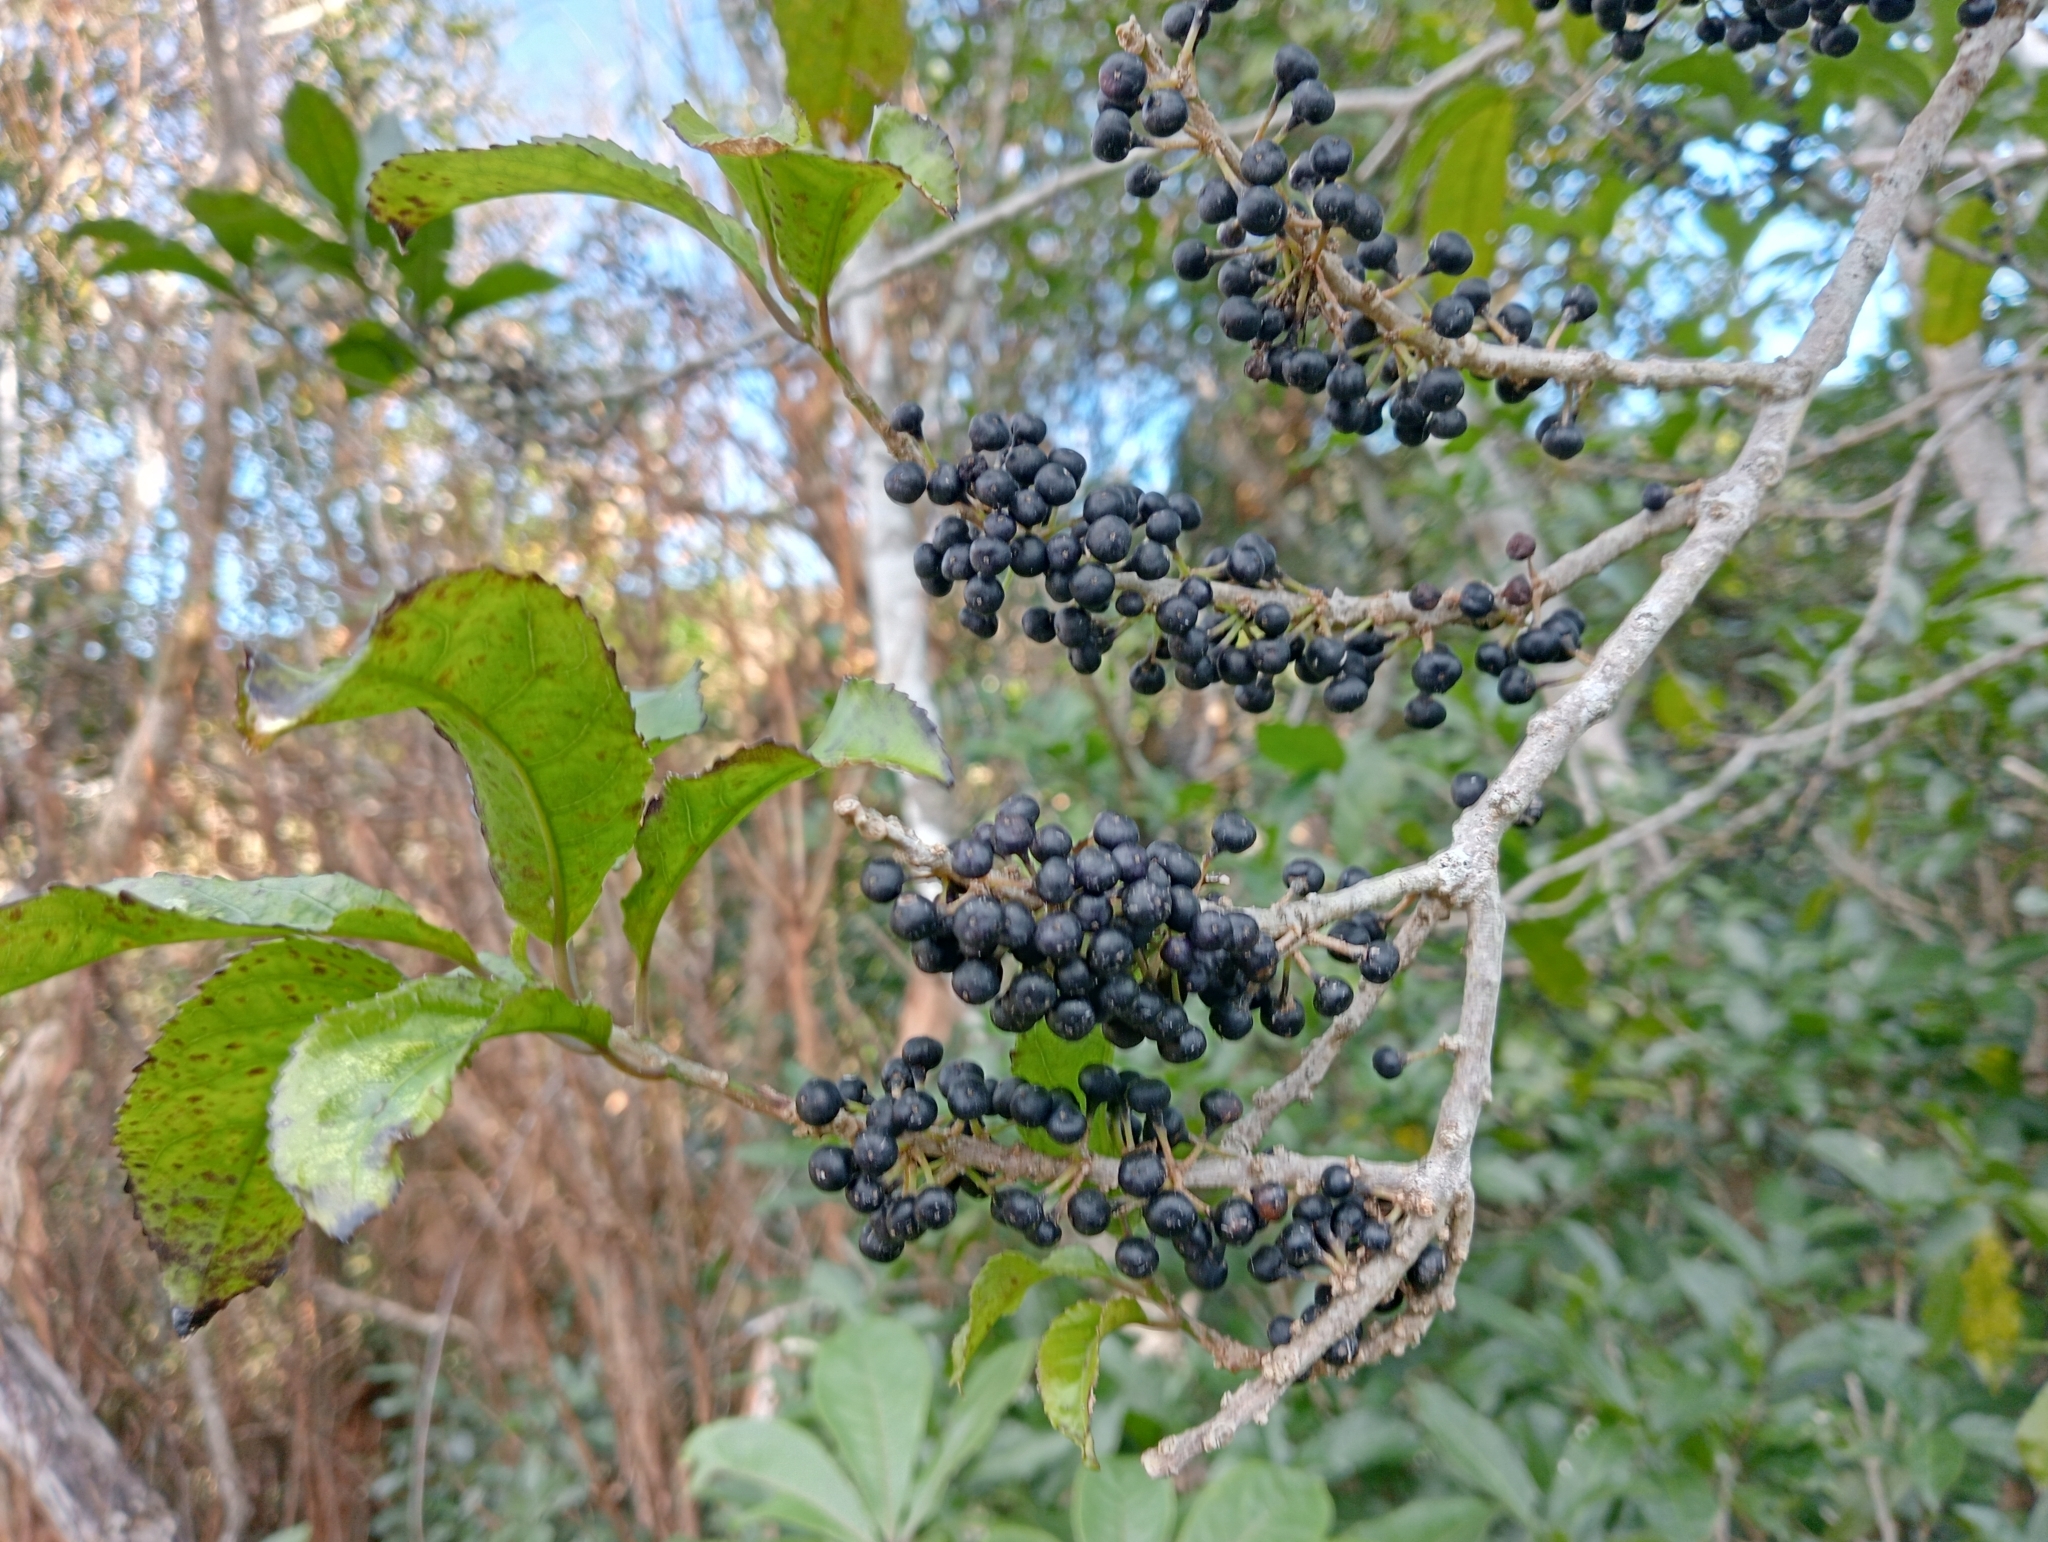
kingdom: Plantae
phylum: Tracheophyta
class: Magnoliopsida
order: Malpighiales
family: Violaceae
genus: Melicytus
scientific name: Melicytus ramiflorus
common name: Mahoe
